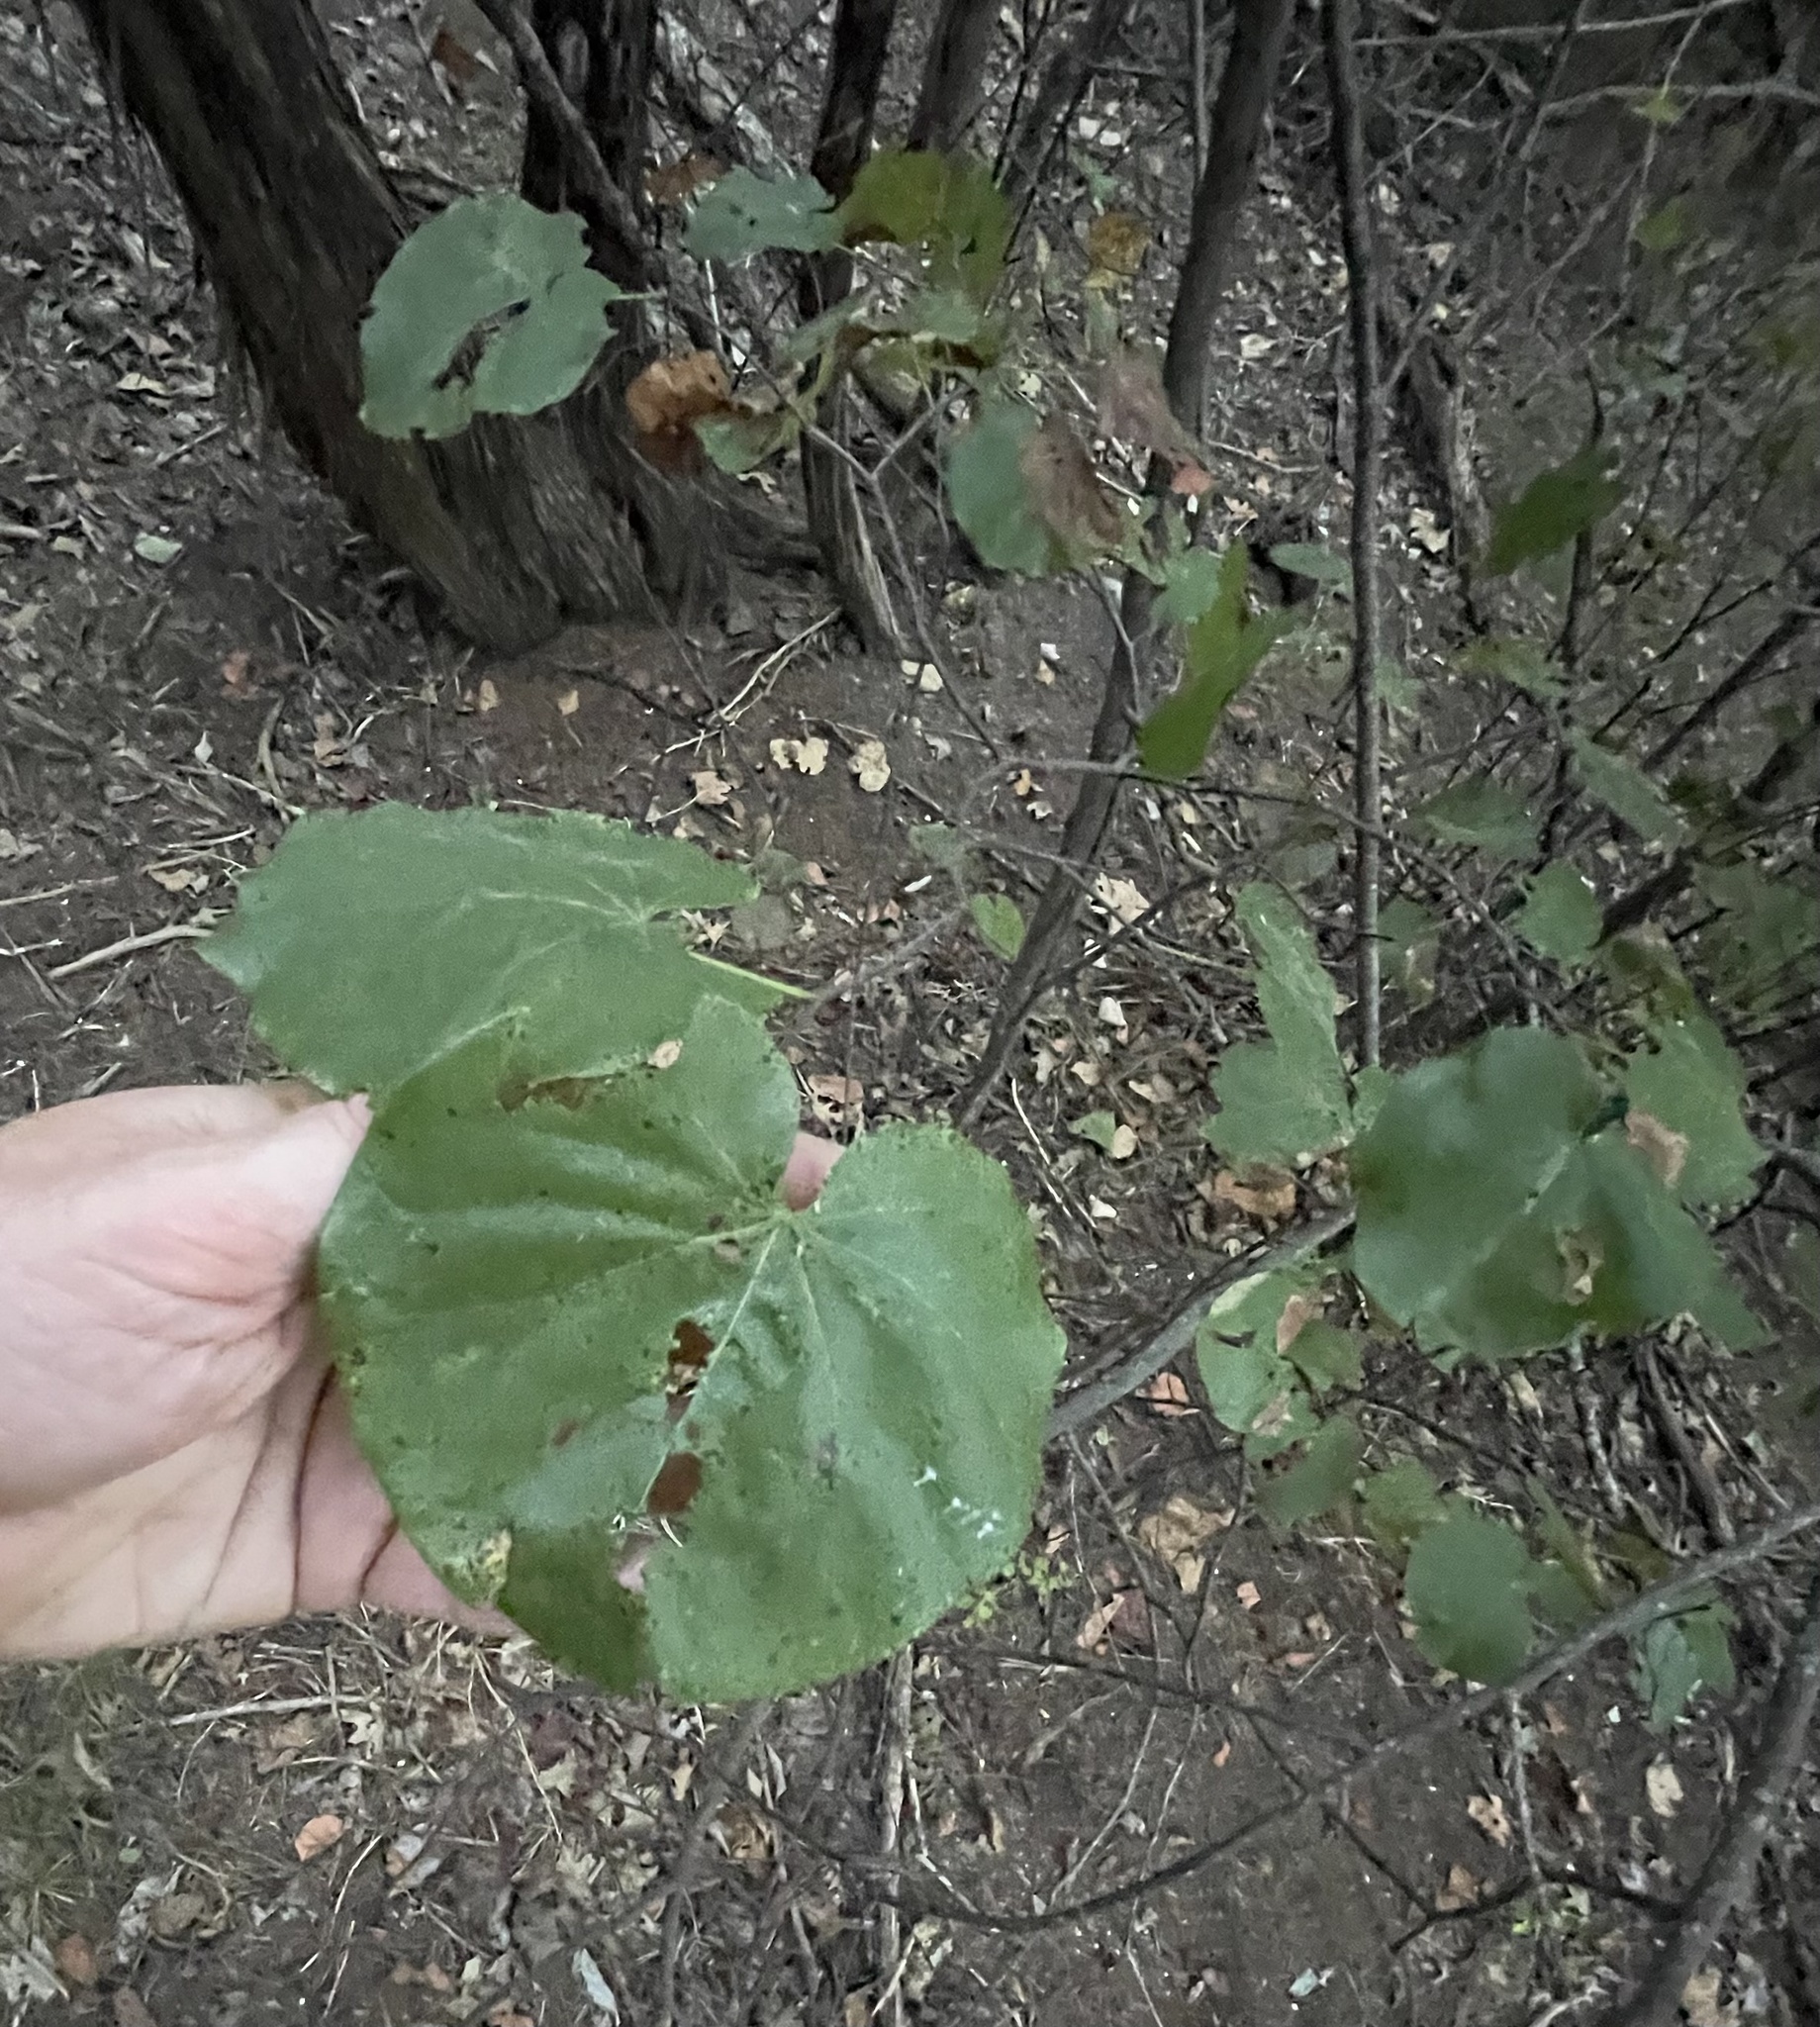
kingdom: Plantae
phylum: Tracheophyta
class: Magnoliopsida
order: Fabales
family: Fabaceae
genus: Cercis
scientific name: Cercis canadensis
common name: Eastern redbud
